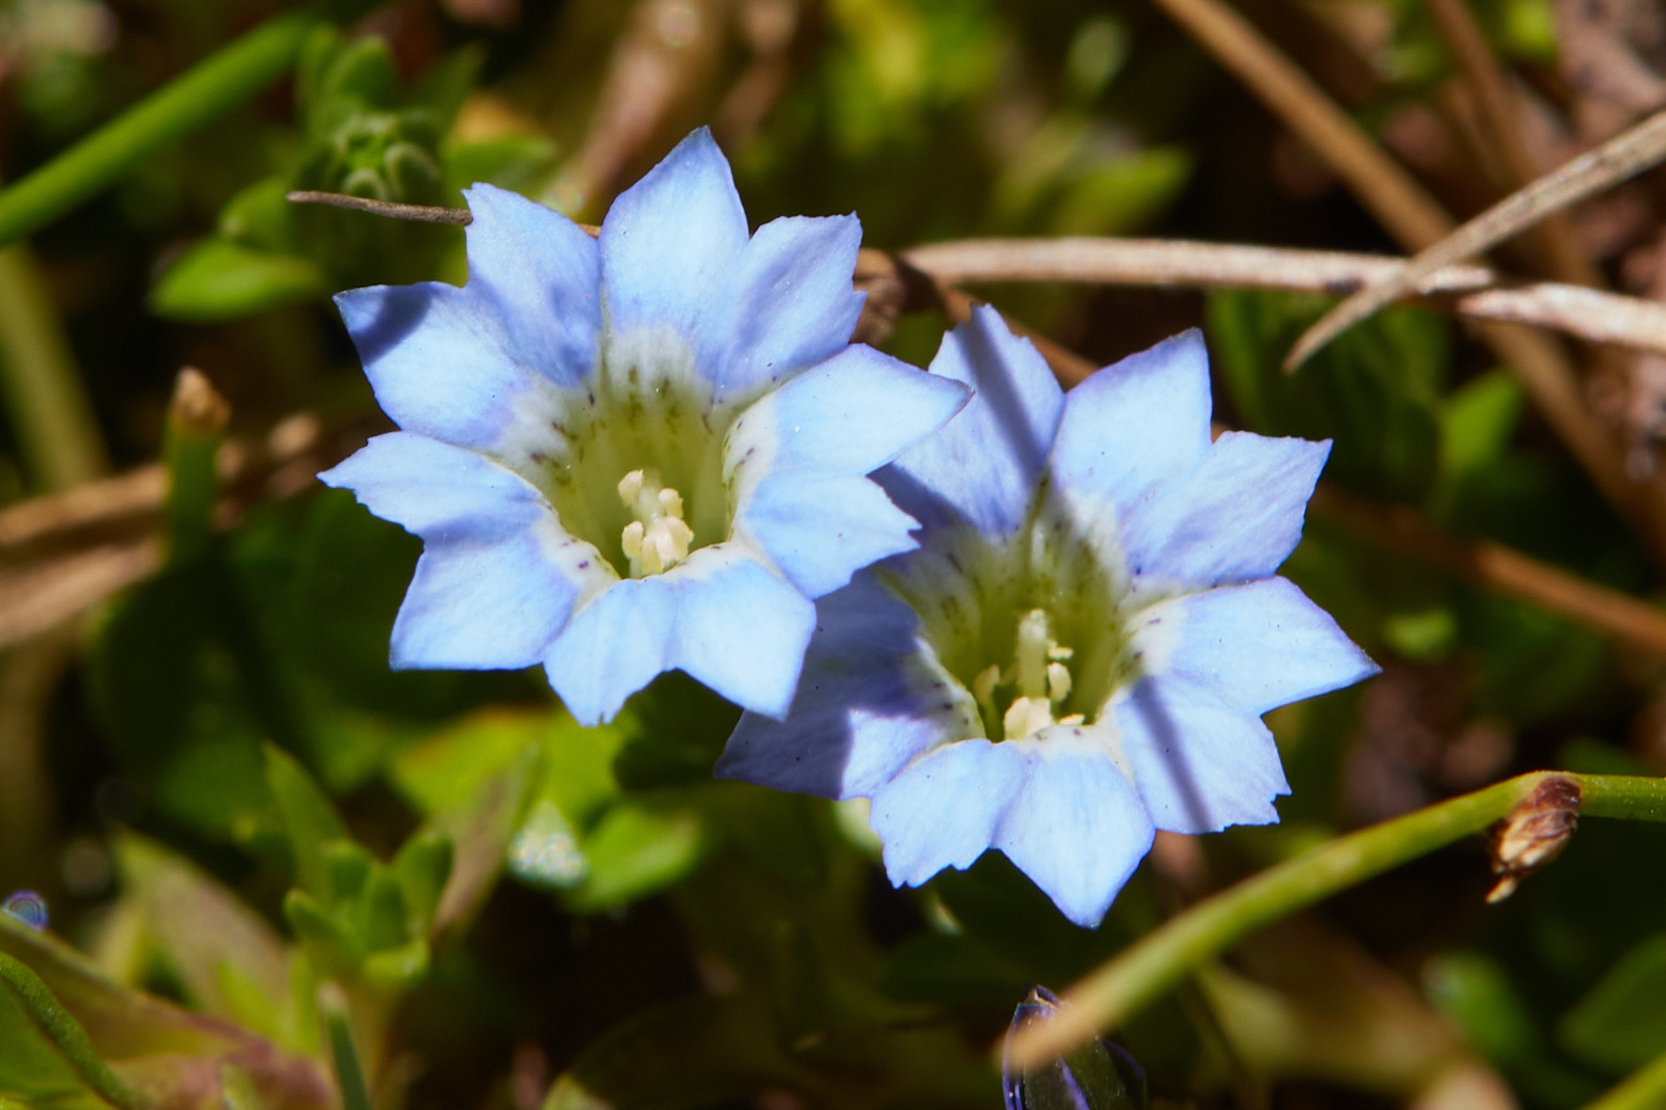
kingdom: Plantae
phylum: Tracheophyta
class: Magnoliopsida
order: Gentianales
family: Gentianaceae
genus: Gentiana
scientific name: Gentiana sedifolia
